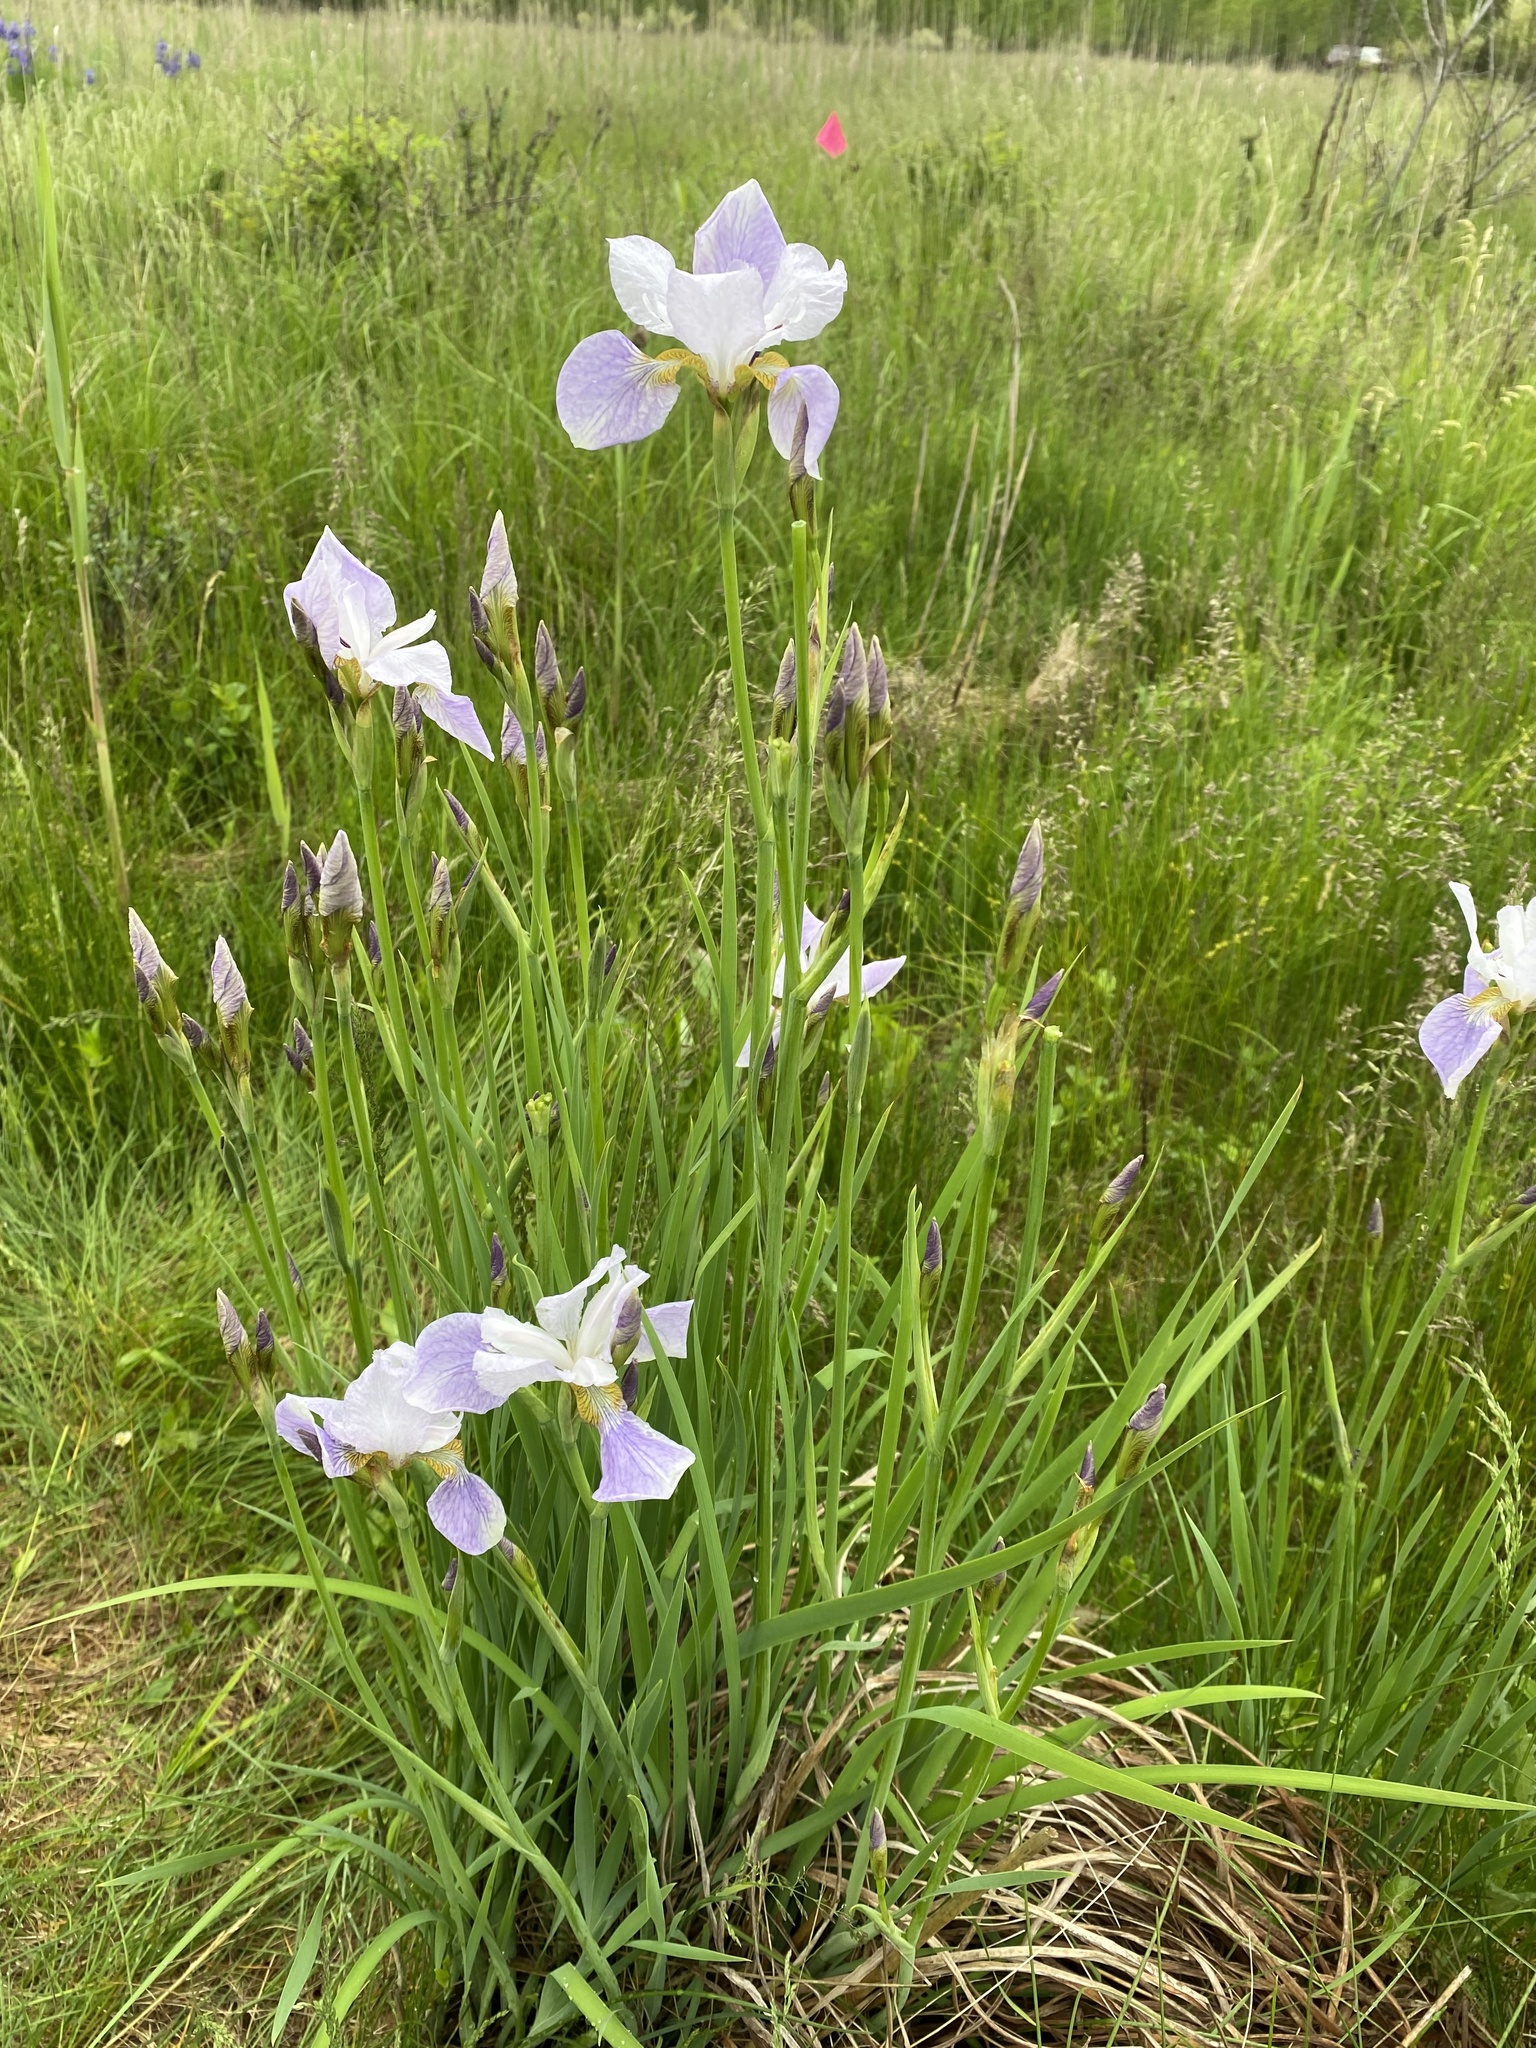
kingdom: Plantae
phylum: Tracheophyta
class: Liliopsida
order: Asparagales
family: Iridaceae
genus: Iris
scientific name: Iris sanguinea
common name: Blood iris
